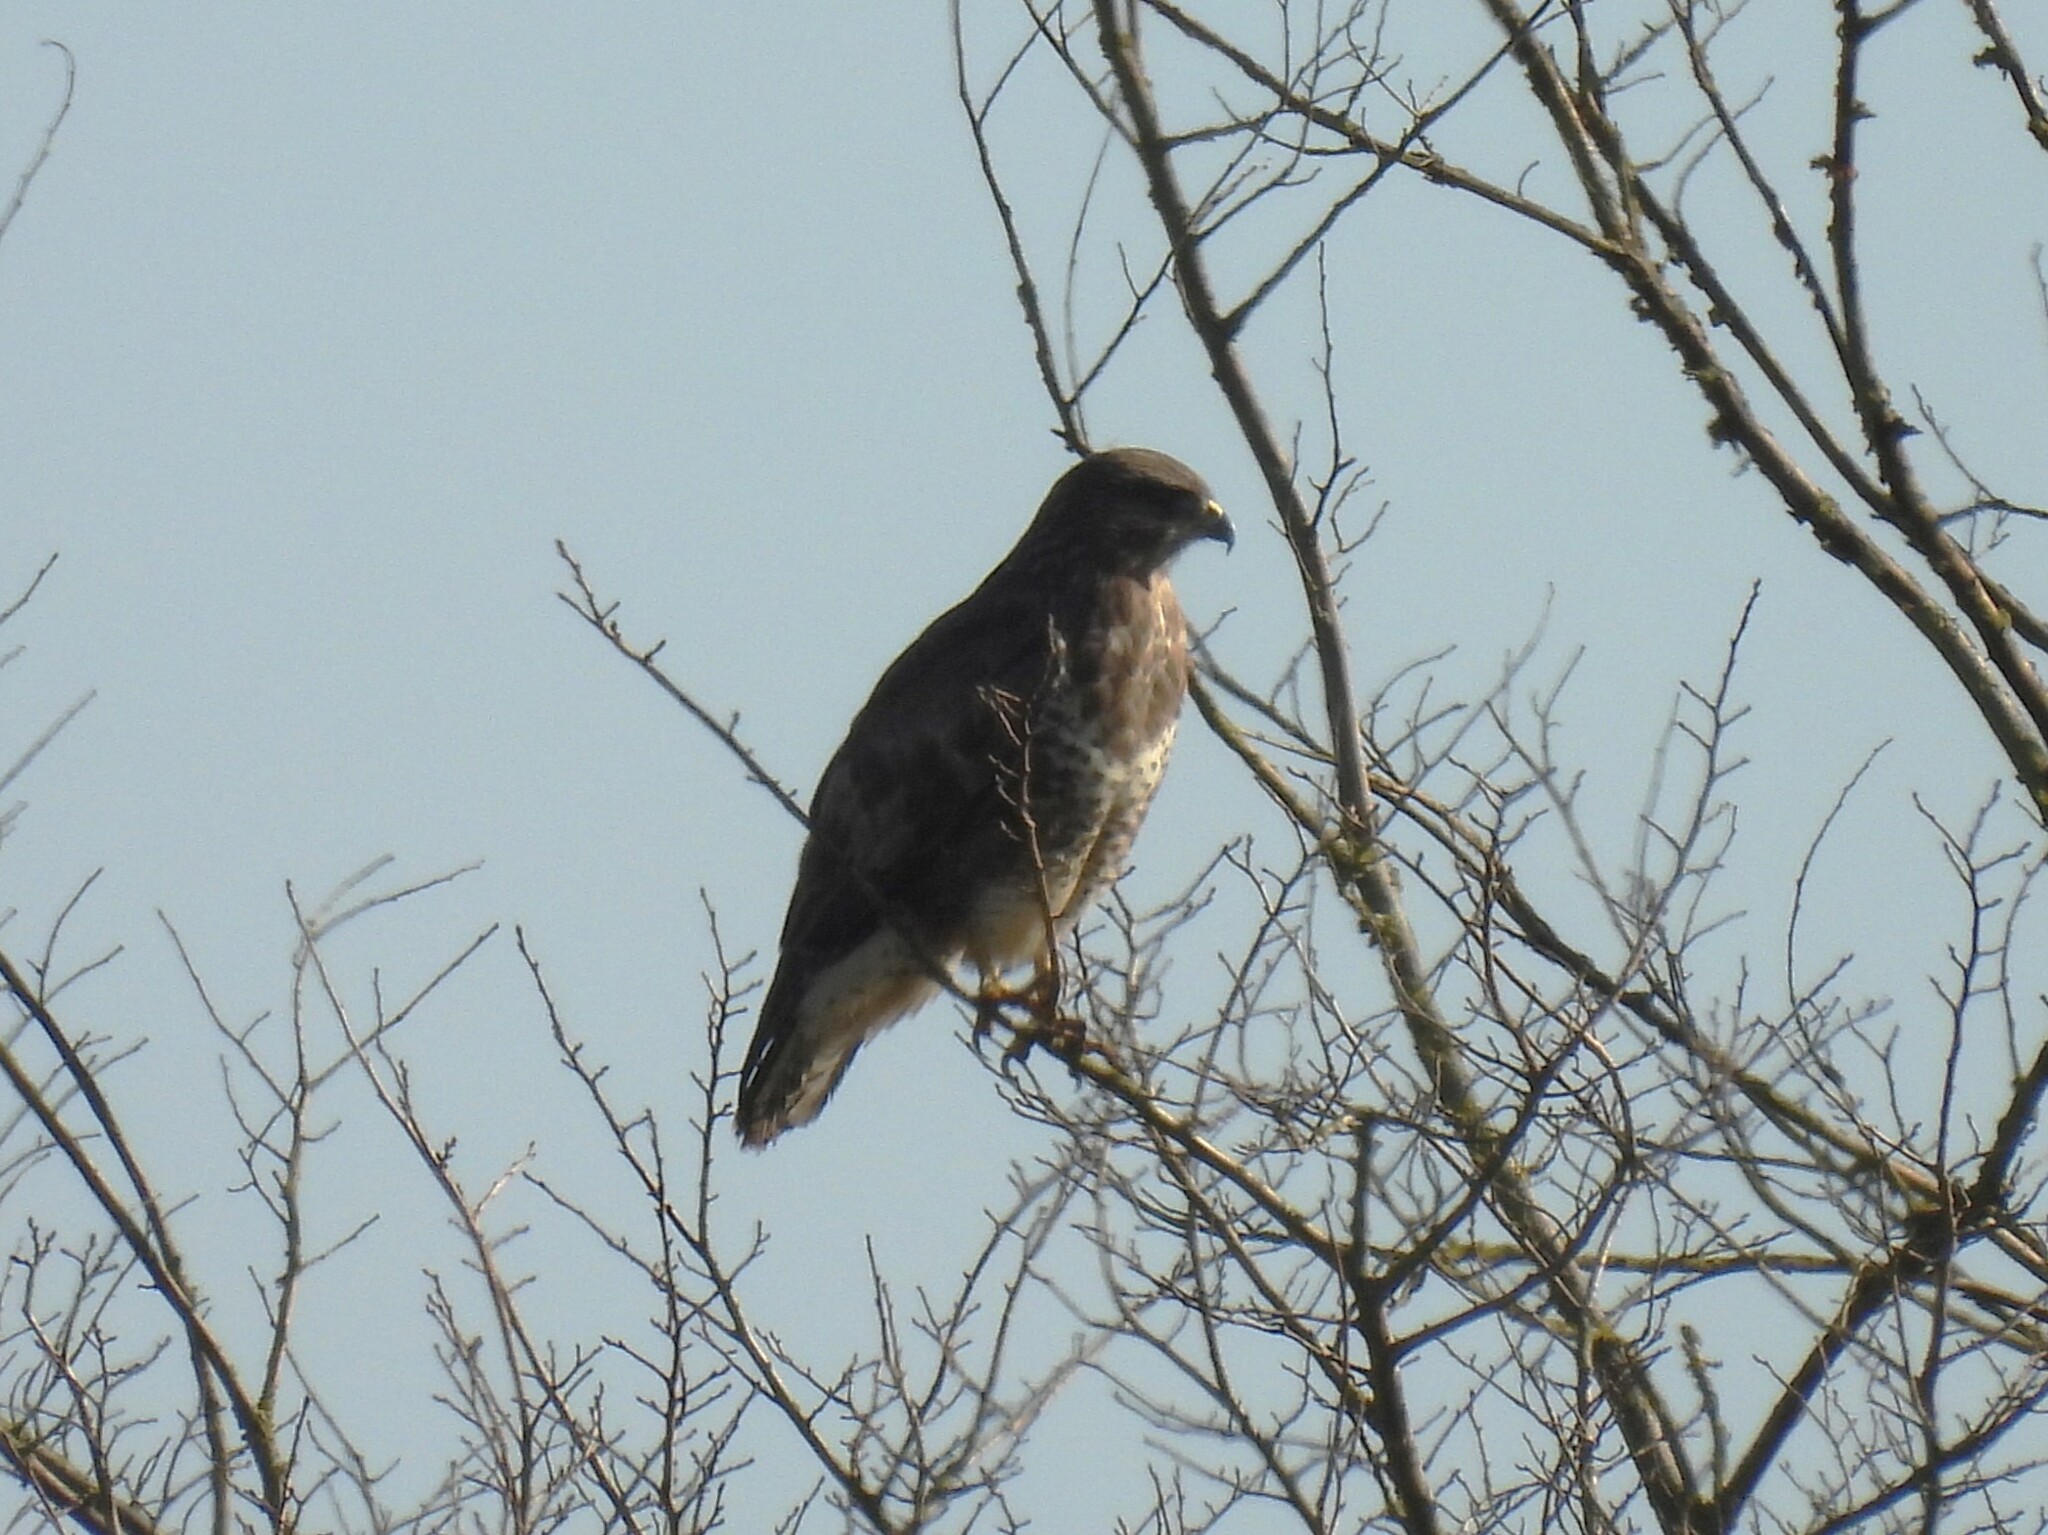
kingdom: Animalia
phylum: Chordata
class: Aves
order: Accipitriformes
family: Accipitridae
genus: Buteo
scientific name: Buteo buteo
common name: Common buzzard
